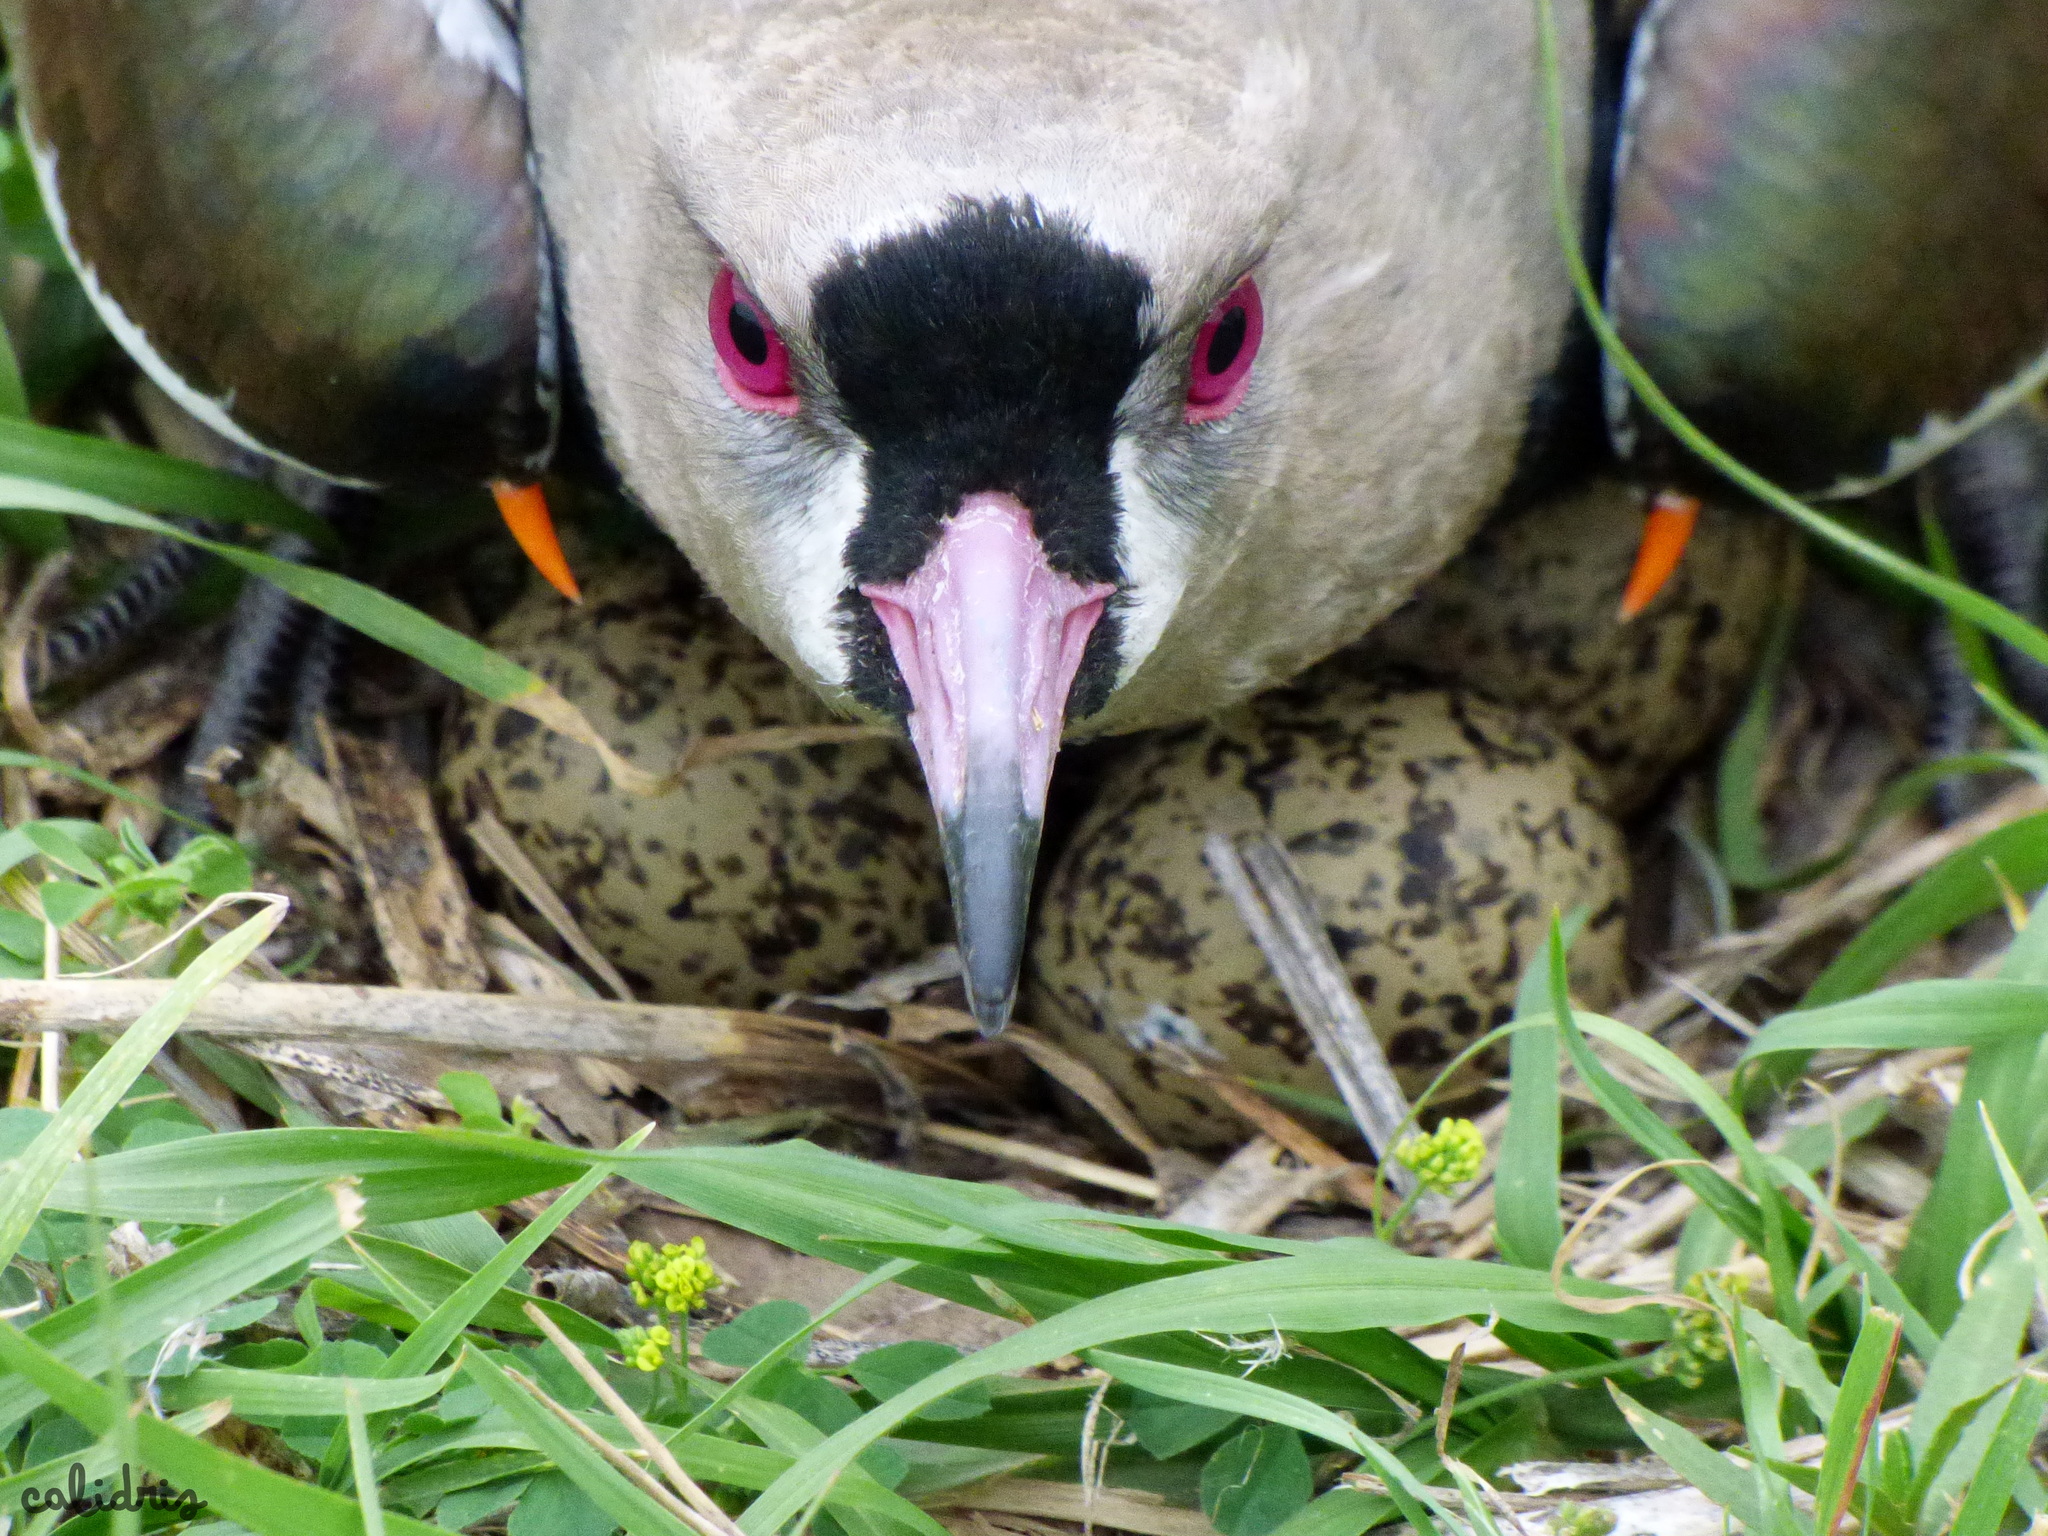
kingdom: Animalia
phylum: Chordata
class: Aves
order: Charadriiformes
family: Charadriidae
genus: Vanellus
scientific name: Vanellus chilensis
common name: Southern lapwing
